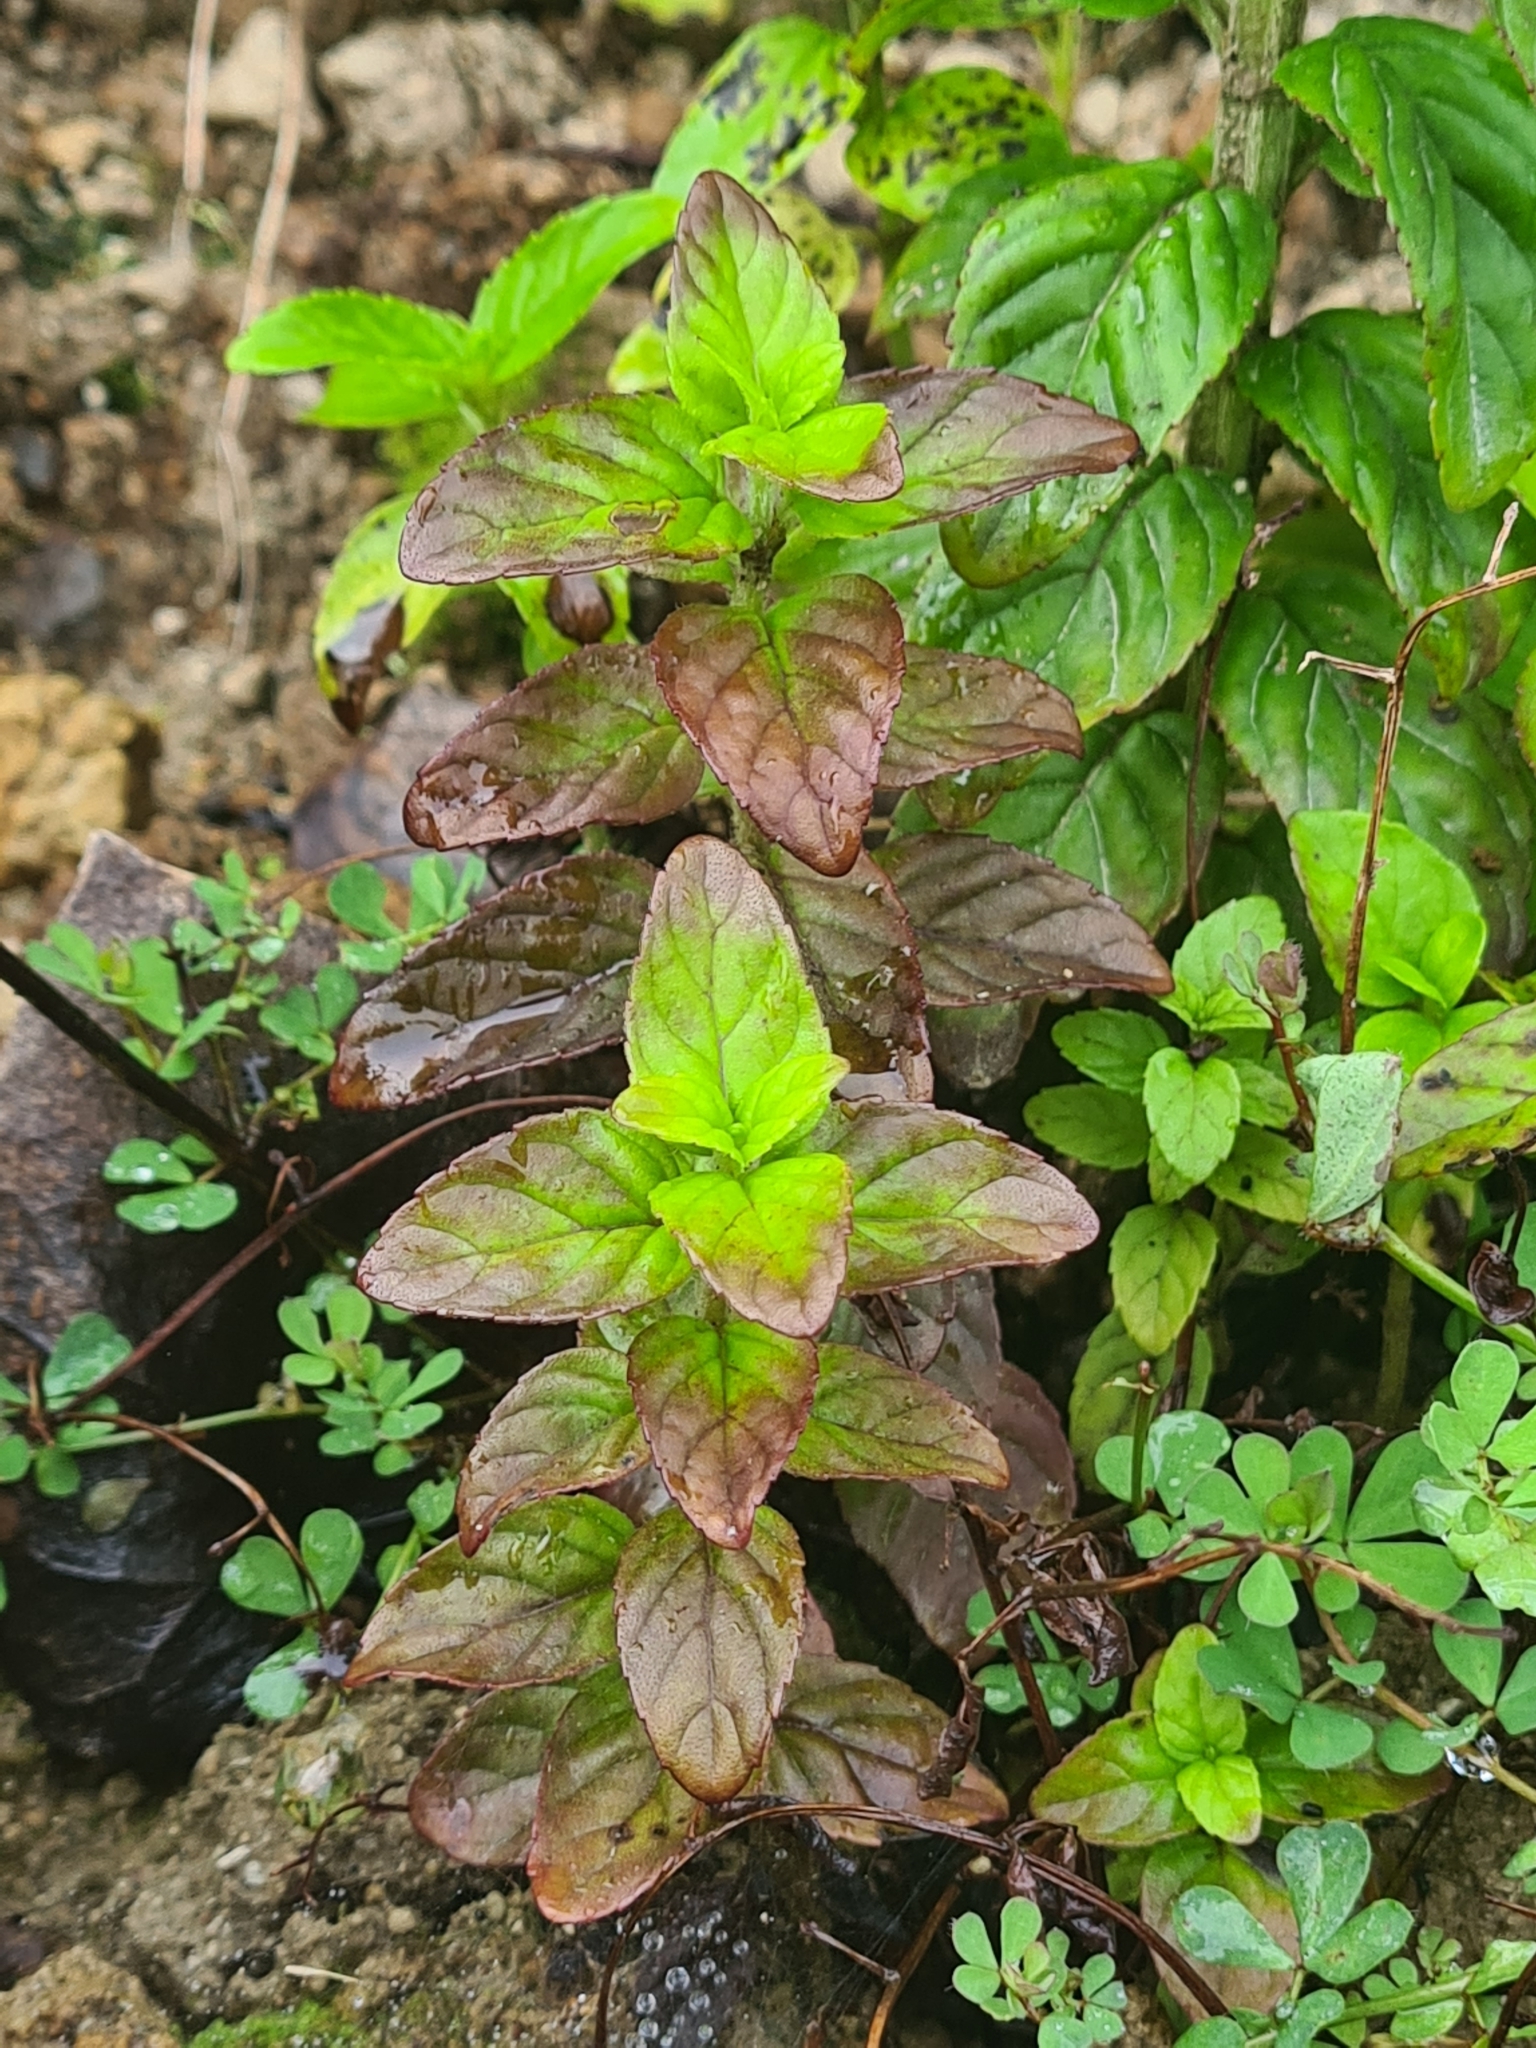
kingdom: Plantae
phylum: Tracheophyta
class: Magnoliopsida
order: Lamiales
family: Lamiaceae
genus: Mentha
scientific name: Mentha aquatica
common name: Water mint
